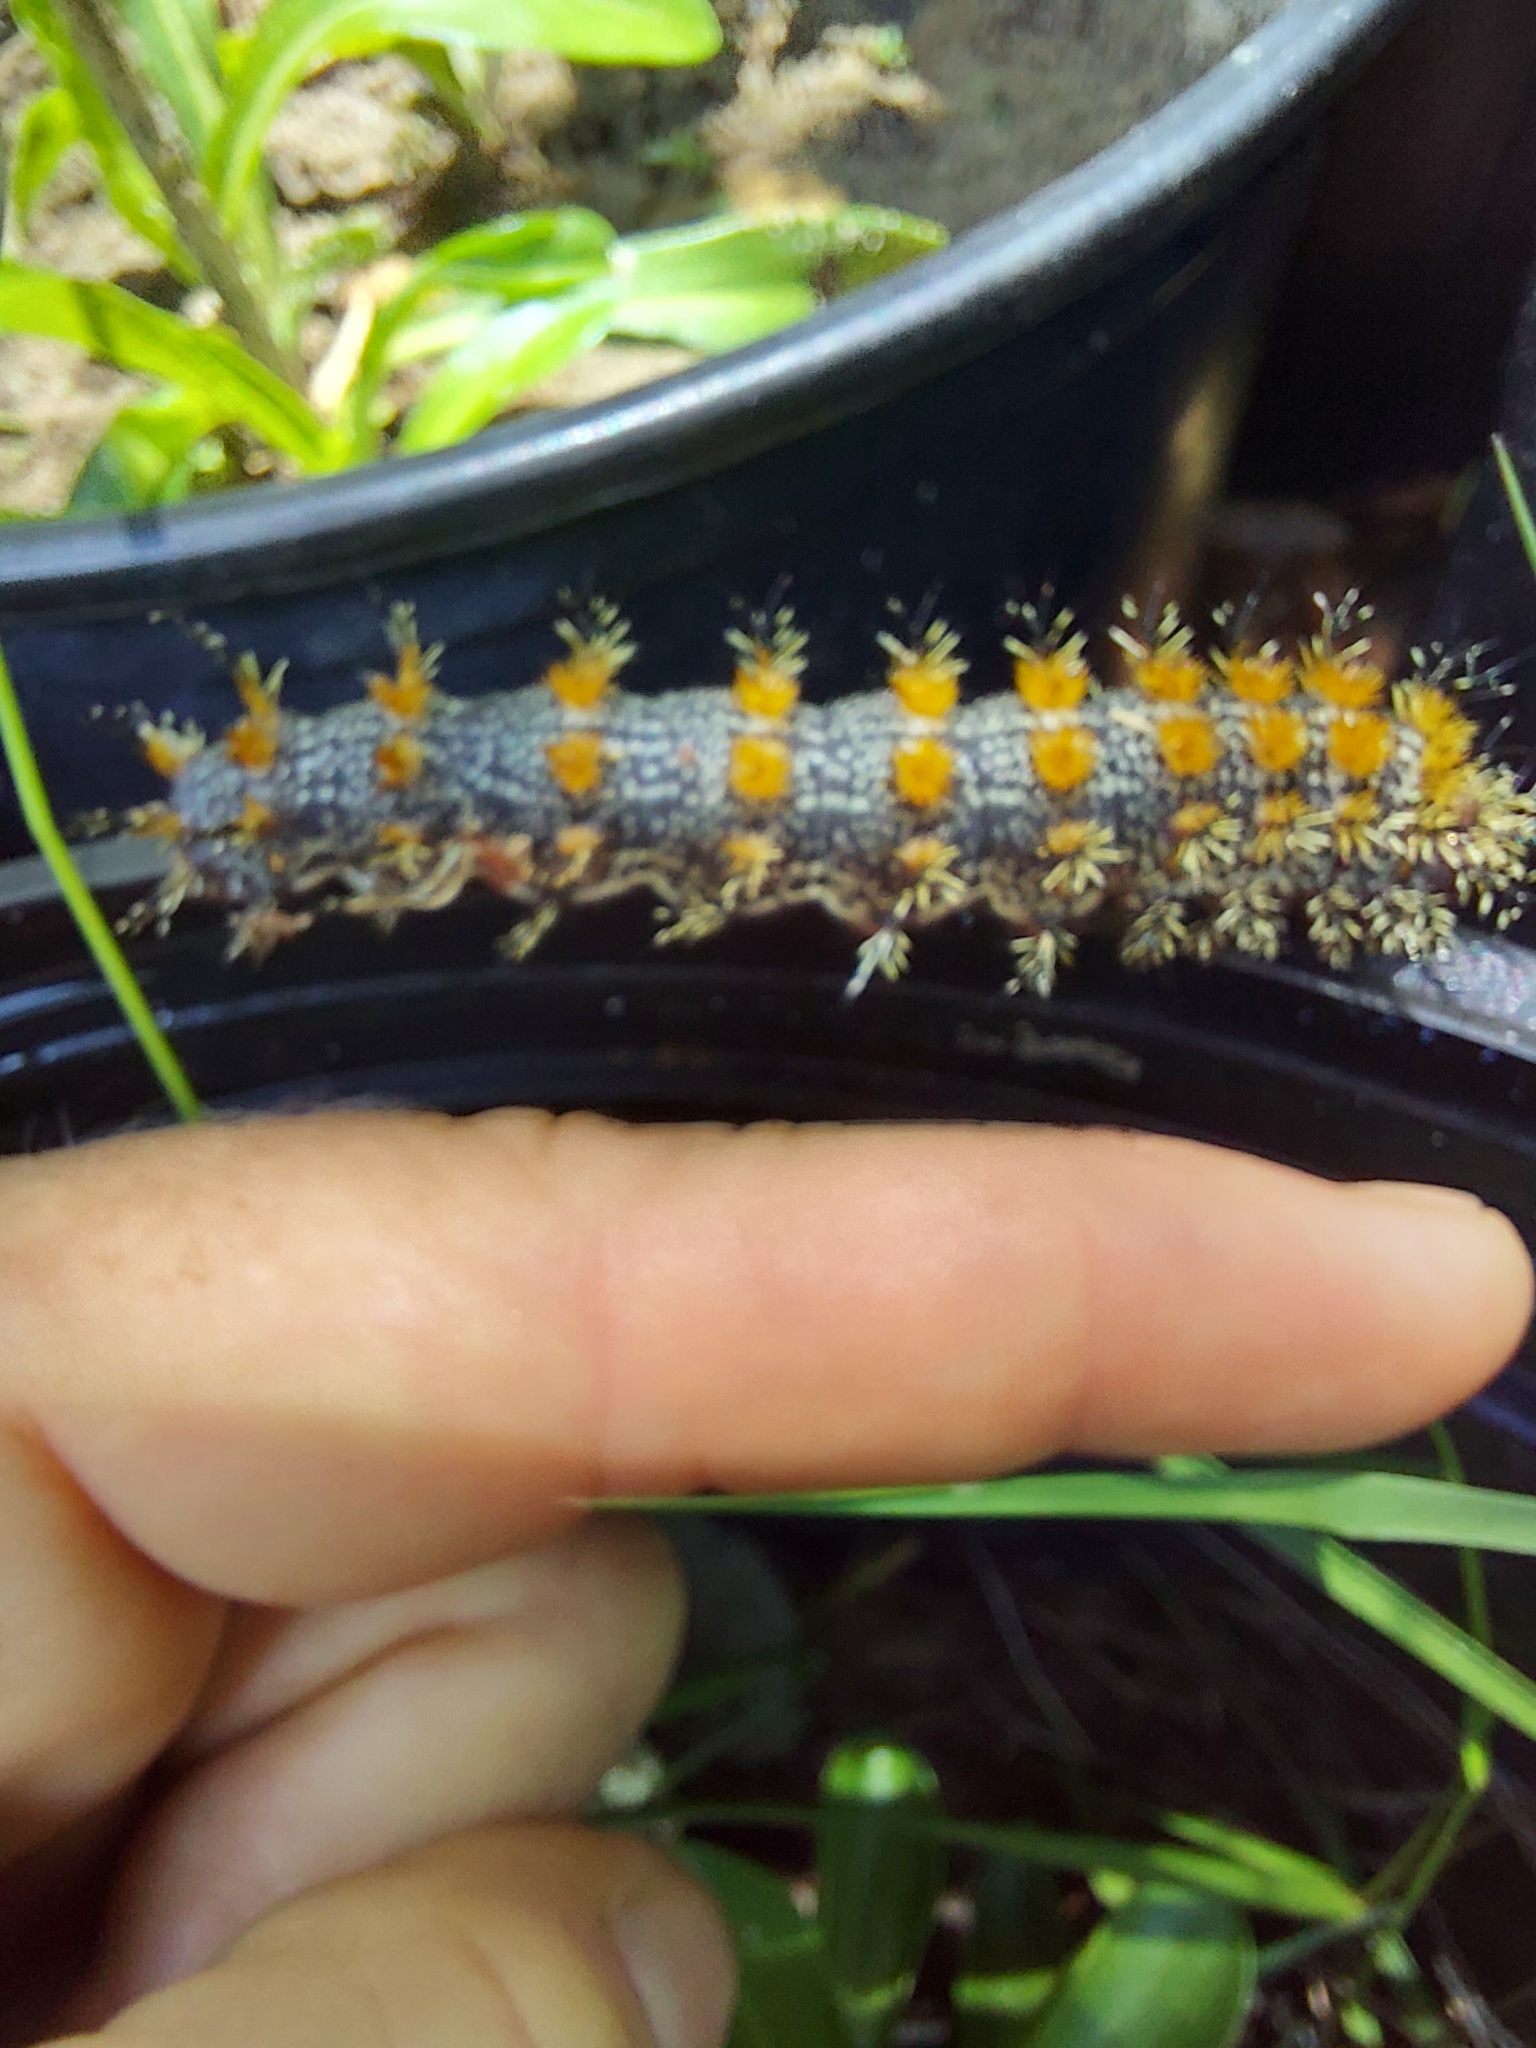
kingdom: Animalia
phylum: Arthropoda
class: Insecta
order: Lepidoptera
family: Saturniidae
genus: Hemileuca
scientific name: Hemileuca maia
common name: Eastern buckmoth
